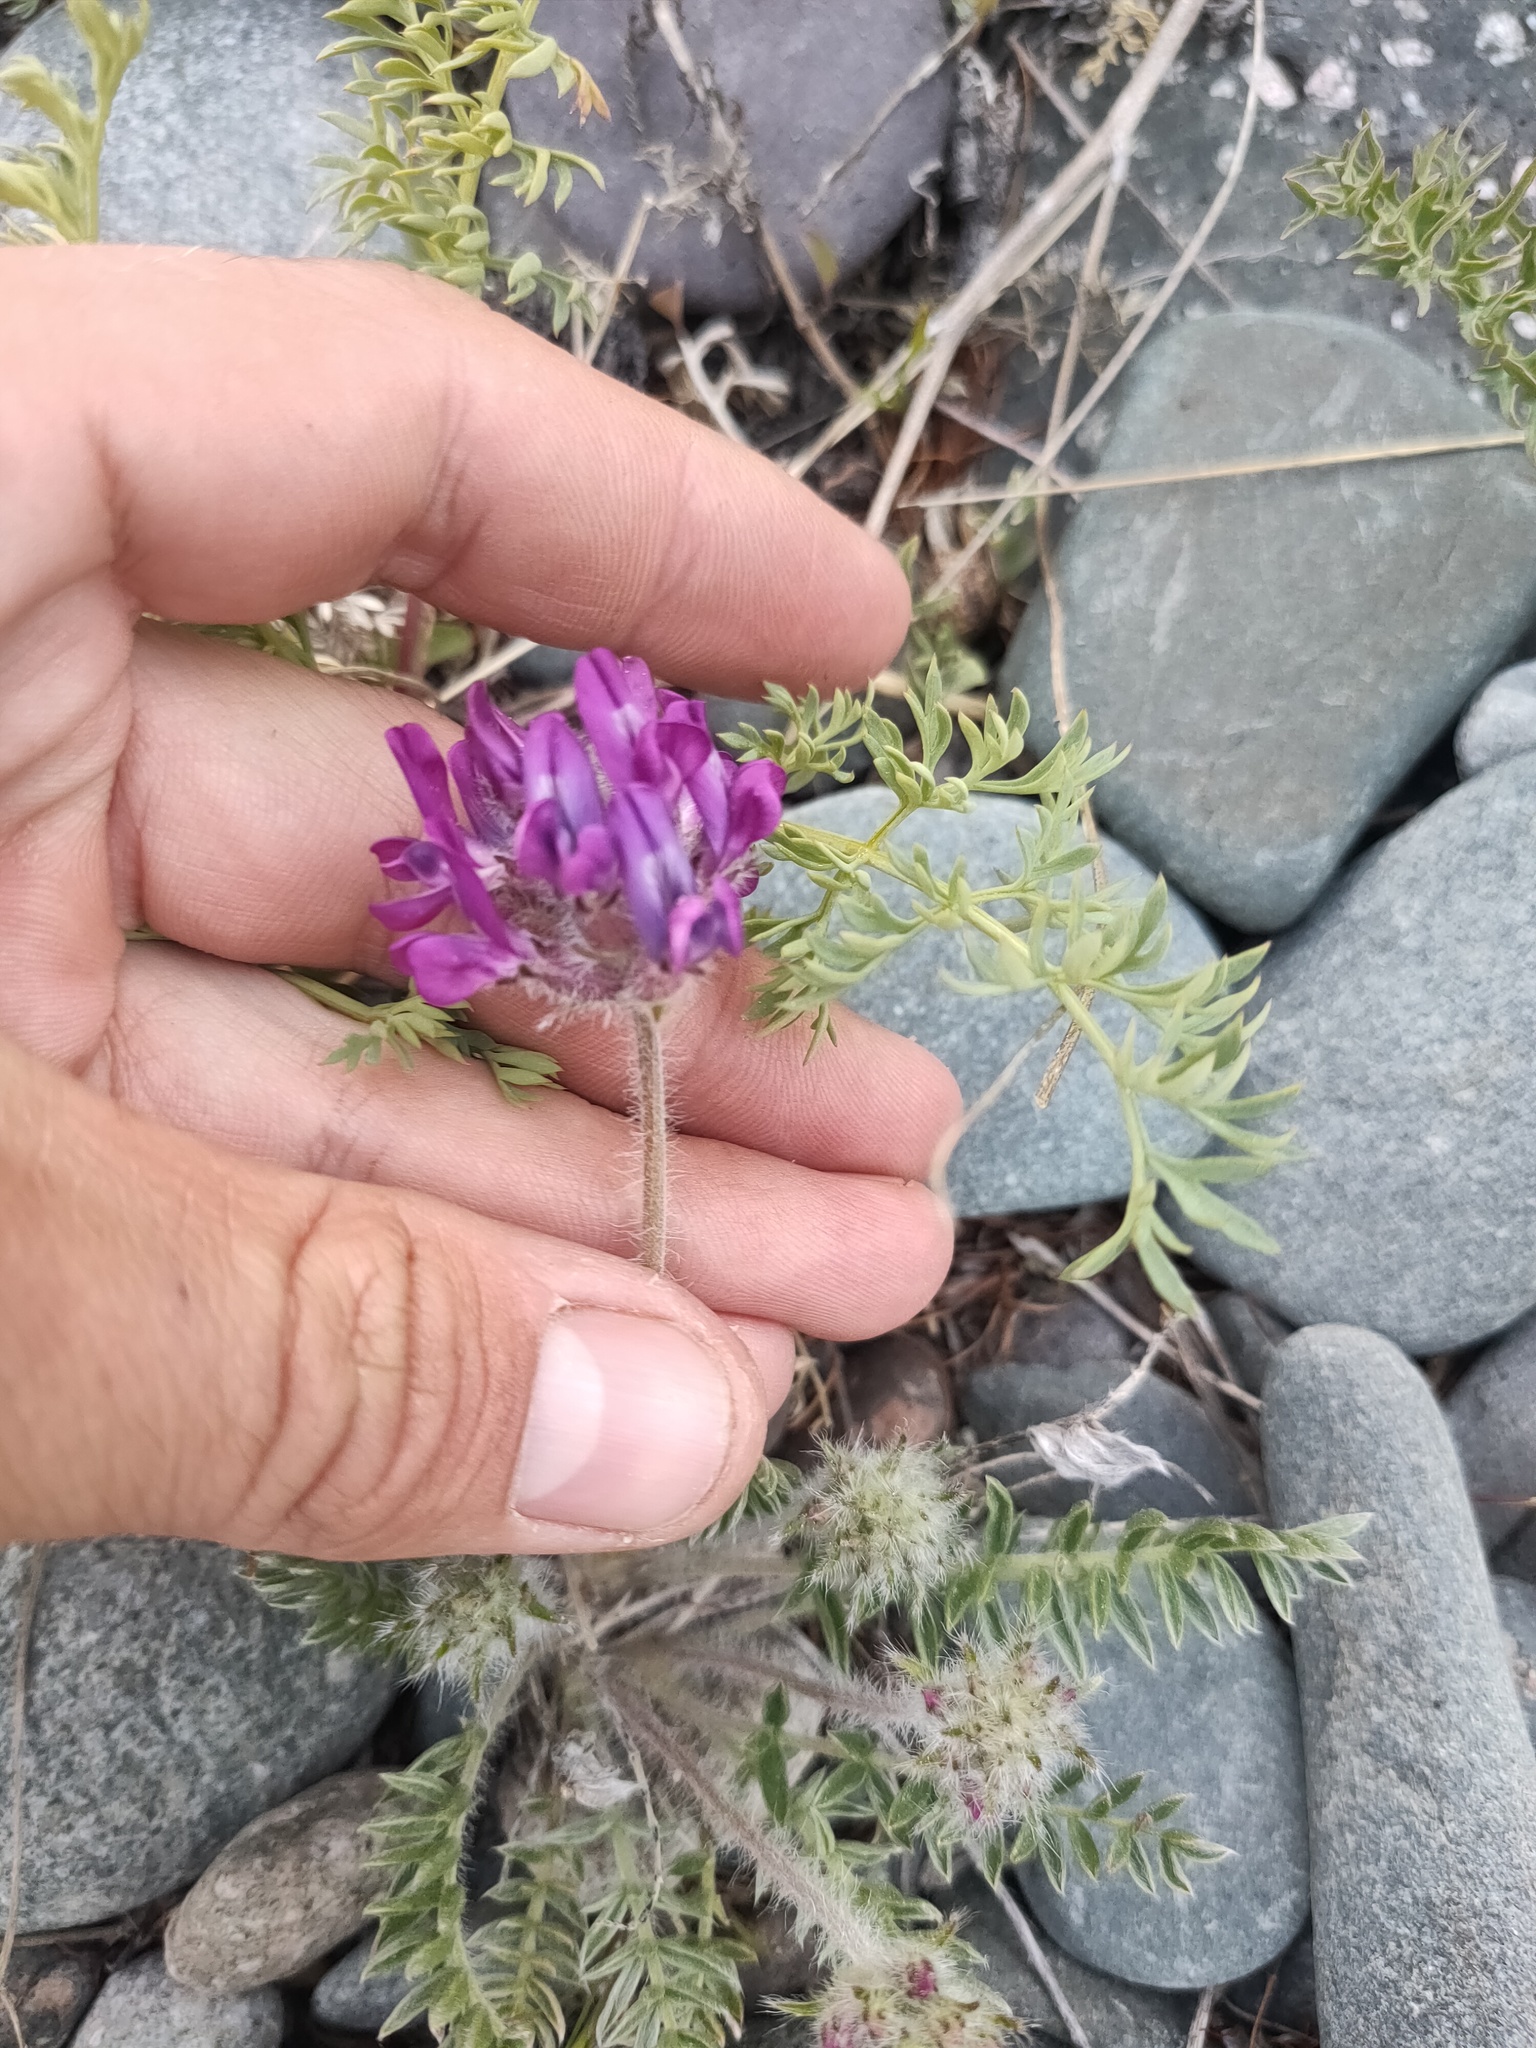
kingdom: Plantae
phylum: Tracheophyta
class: Magnoliopsida
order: Fabales
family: Fabaceae
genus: Oxytropis
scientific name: Oxytropis turczaninovii
